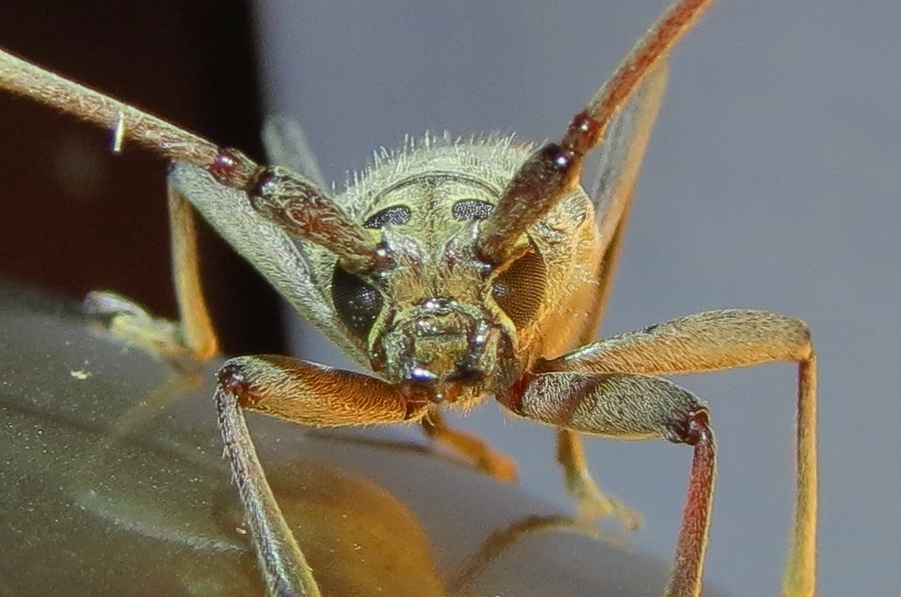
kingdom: Animalia
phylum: Arthropoda
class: Insecta
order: Coleoptera
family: Cerambycidae
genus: Knulliana
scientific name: Knulliana cincta
